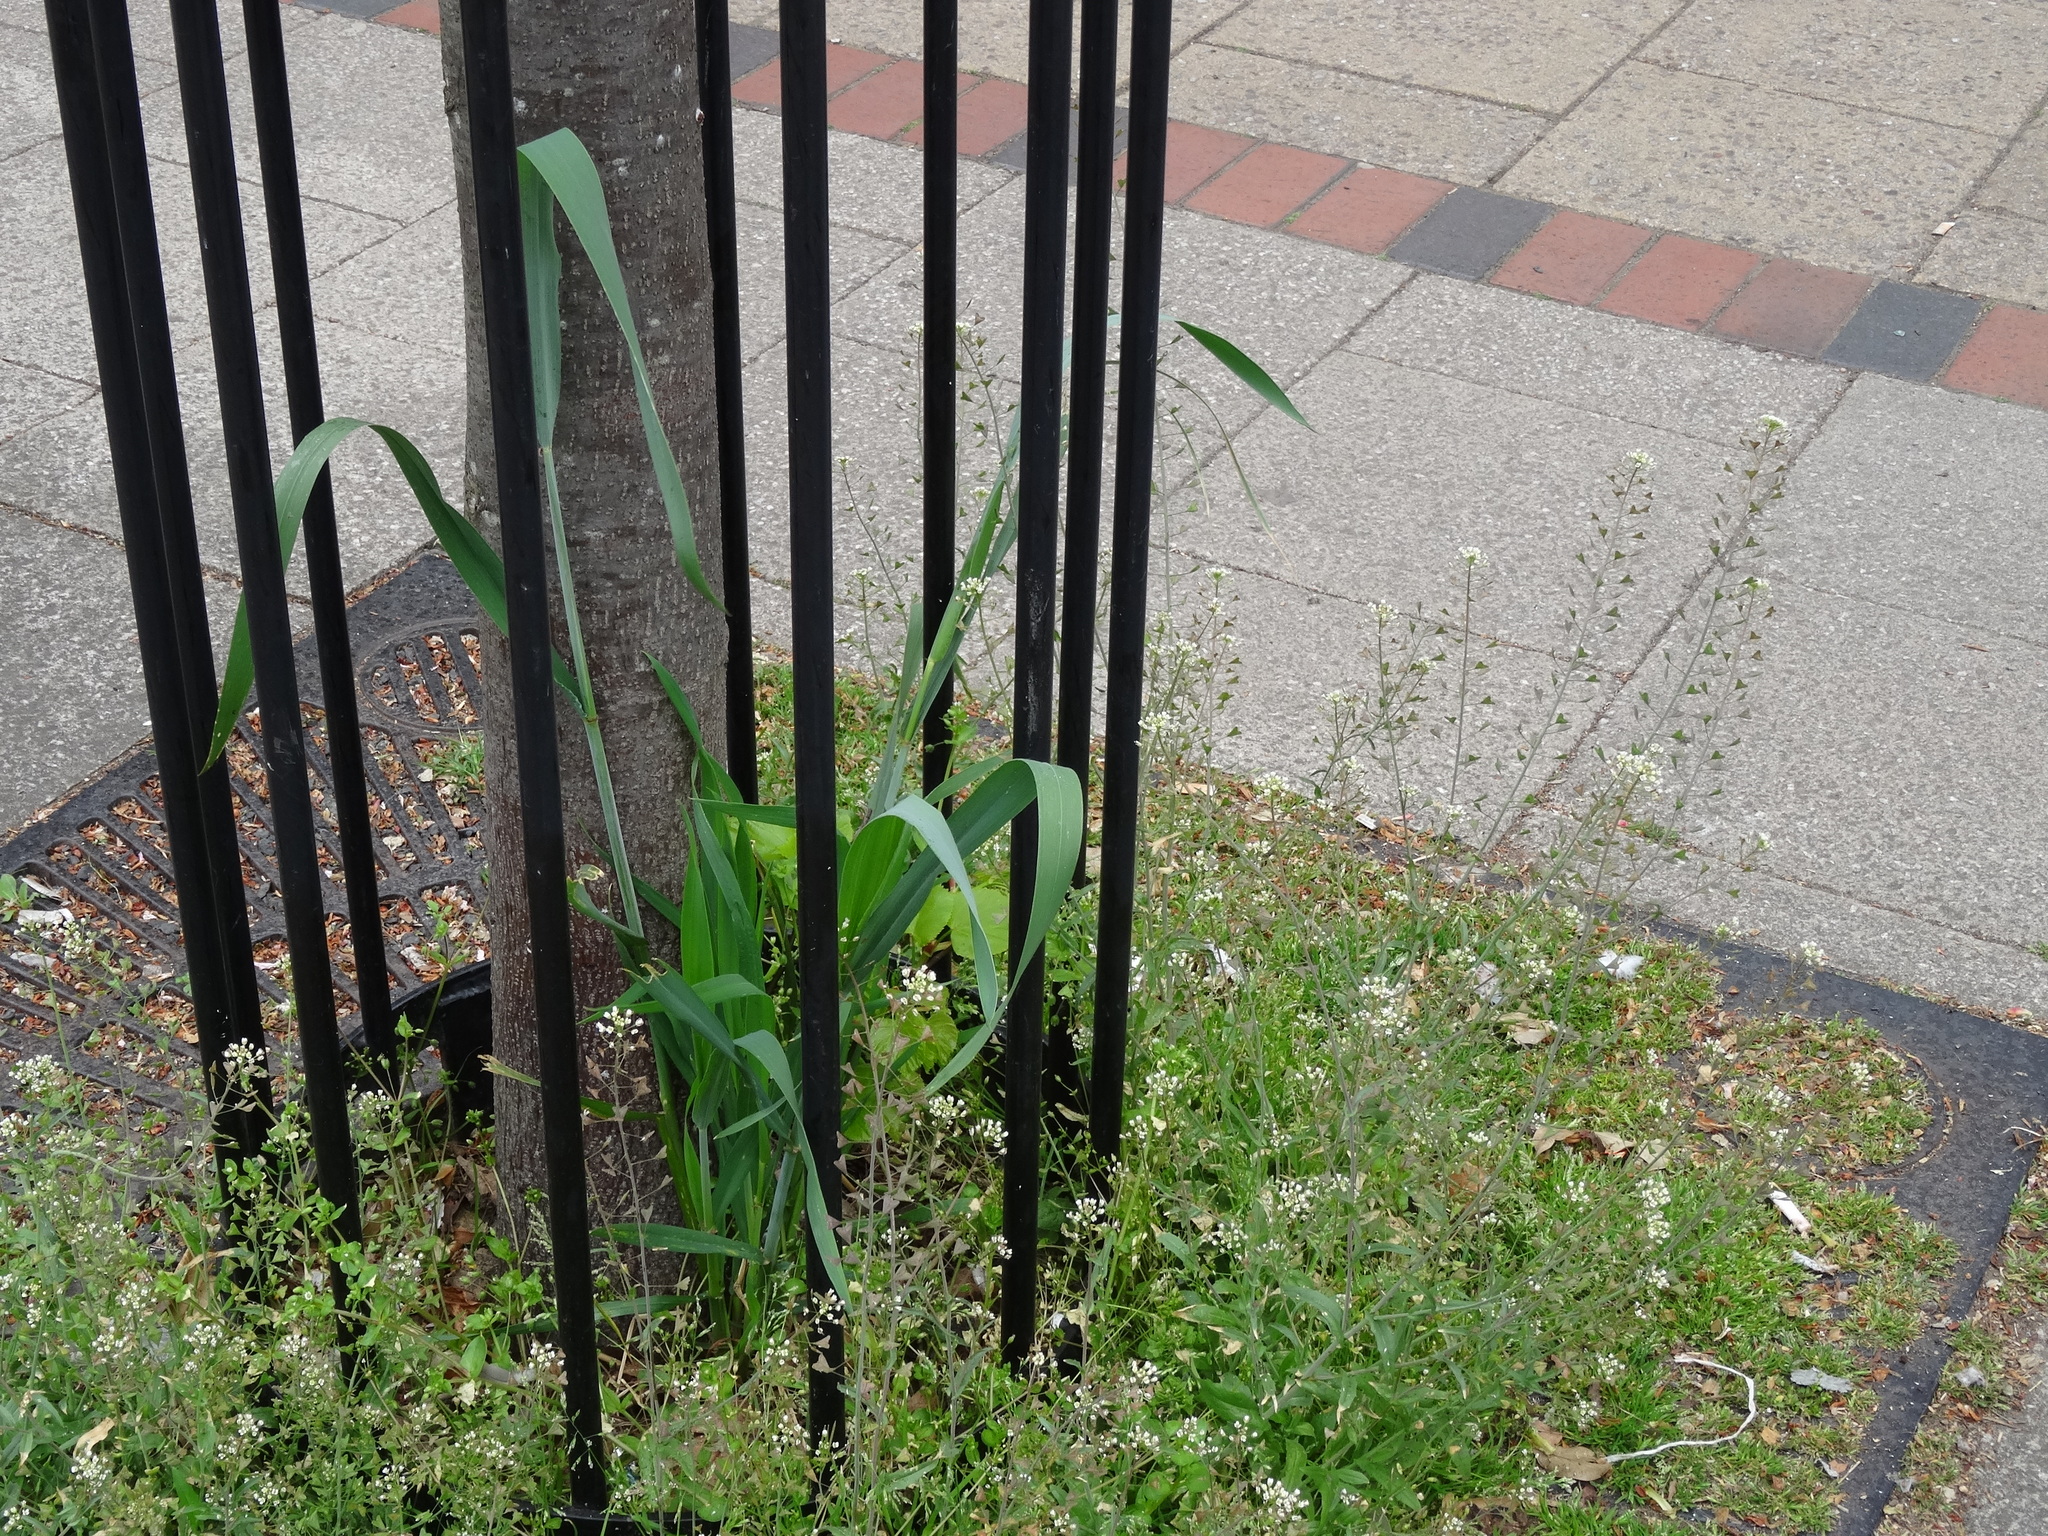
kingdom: Plantae
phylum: Tracheophyta
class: Liliopsida
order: Poales
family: Poaceae
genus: Triticum
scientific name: Triticum aestivum
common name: Common wheat
